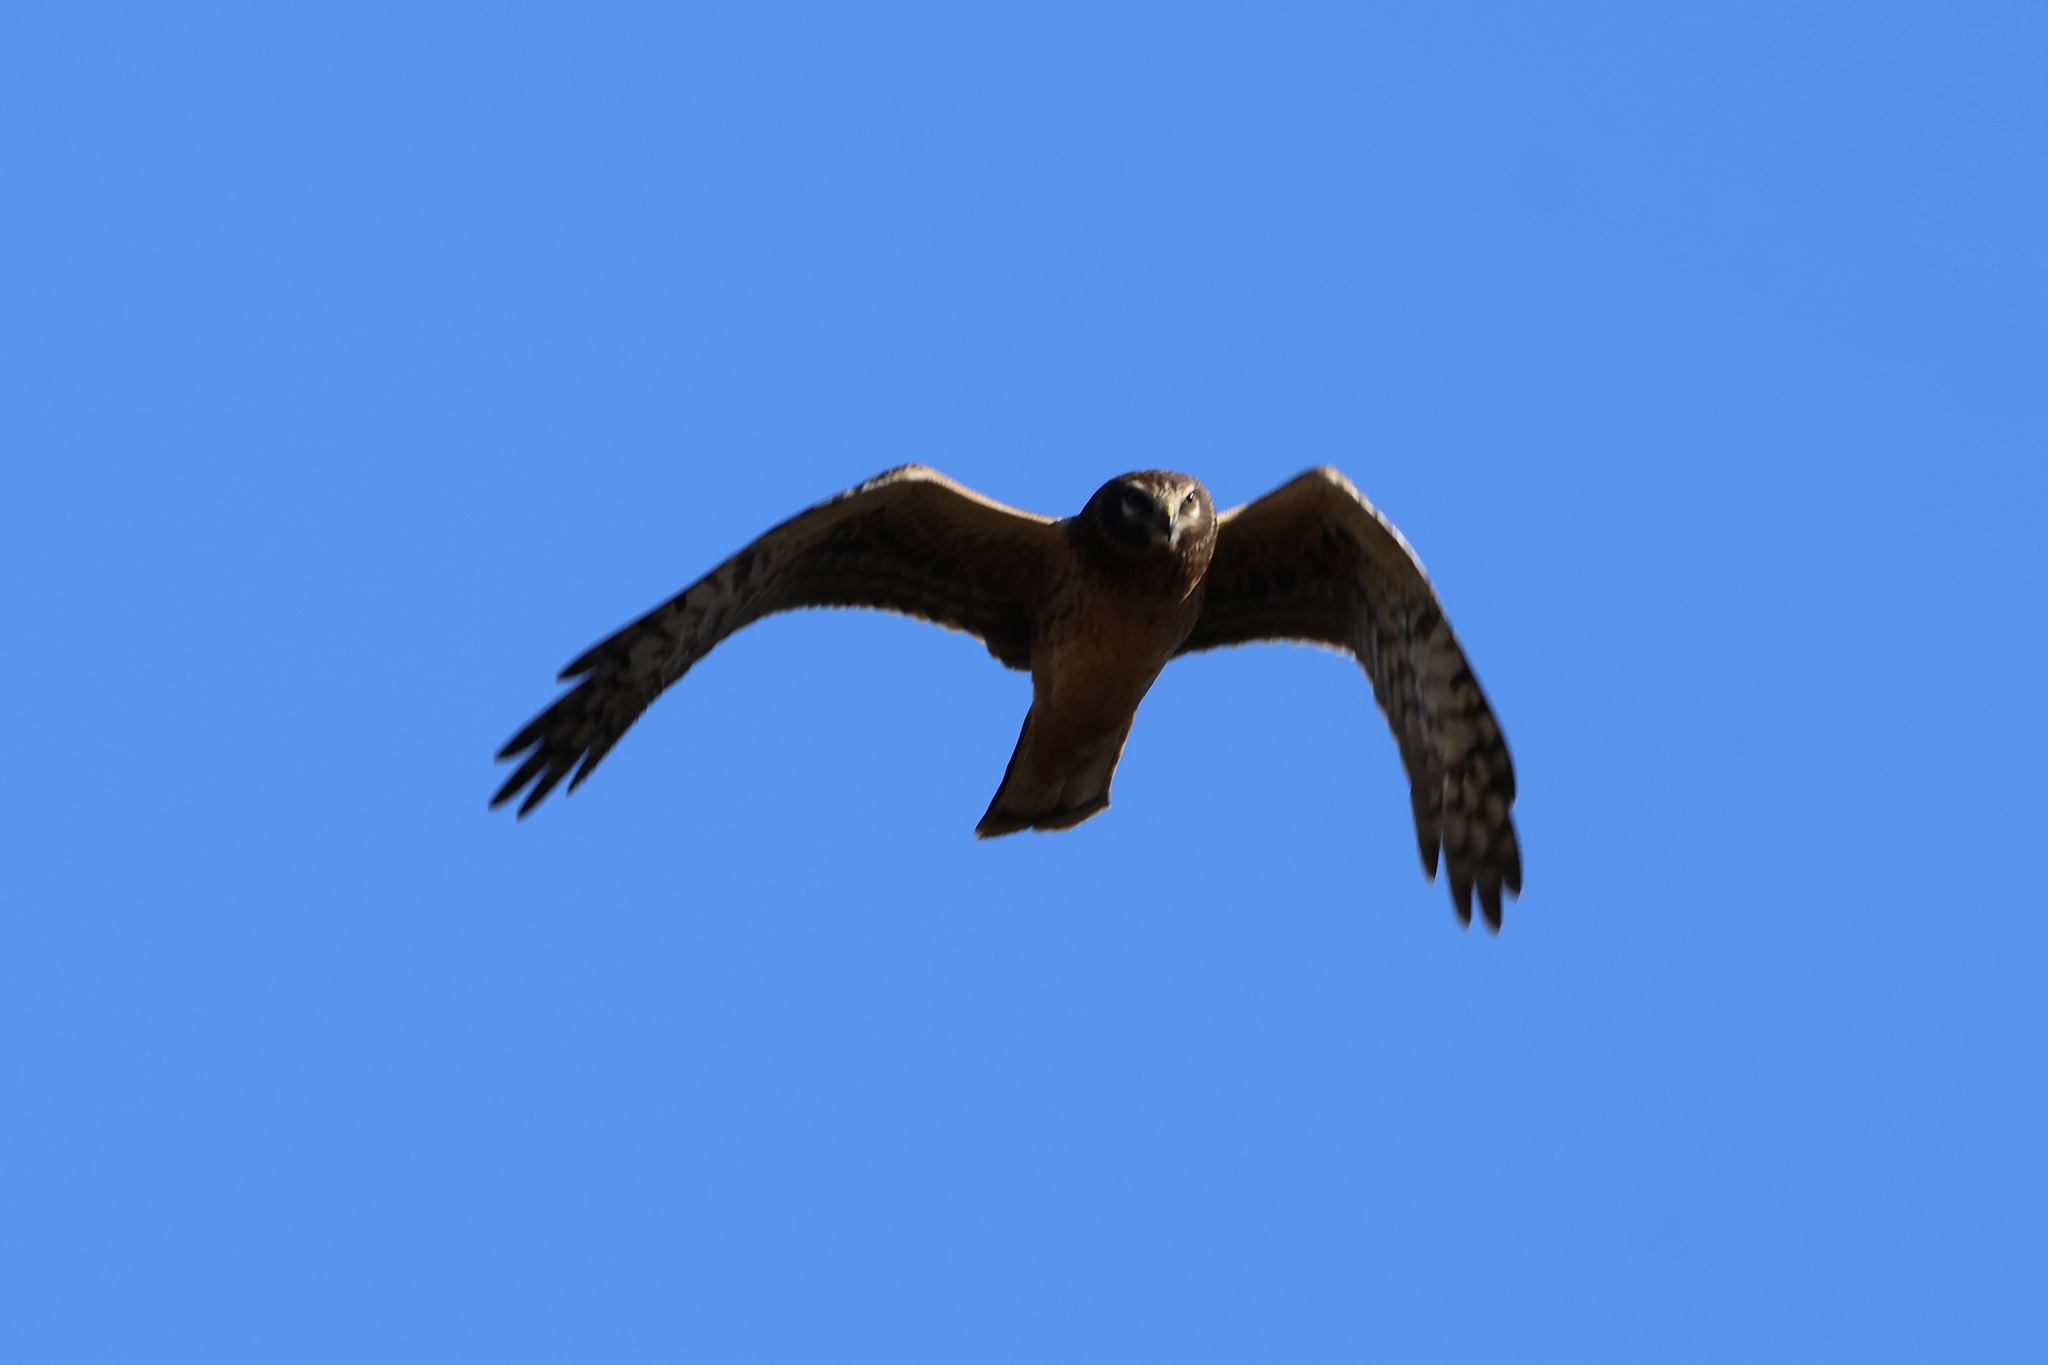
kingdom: Animalia
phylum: Chordata
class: Aves
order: Accipitriformes
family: Accipitridae
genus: Circus
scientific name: Circus cyaneus
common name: Hen harrier
